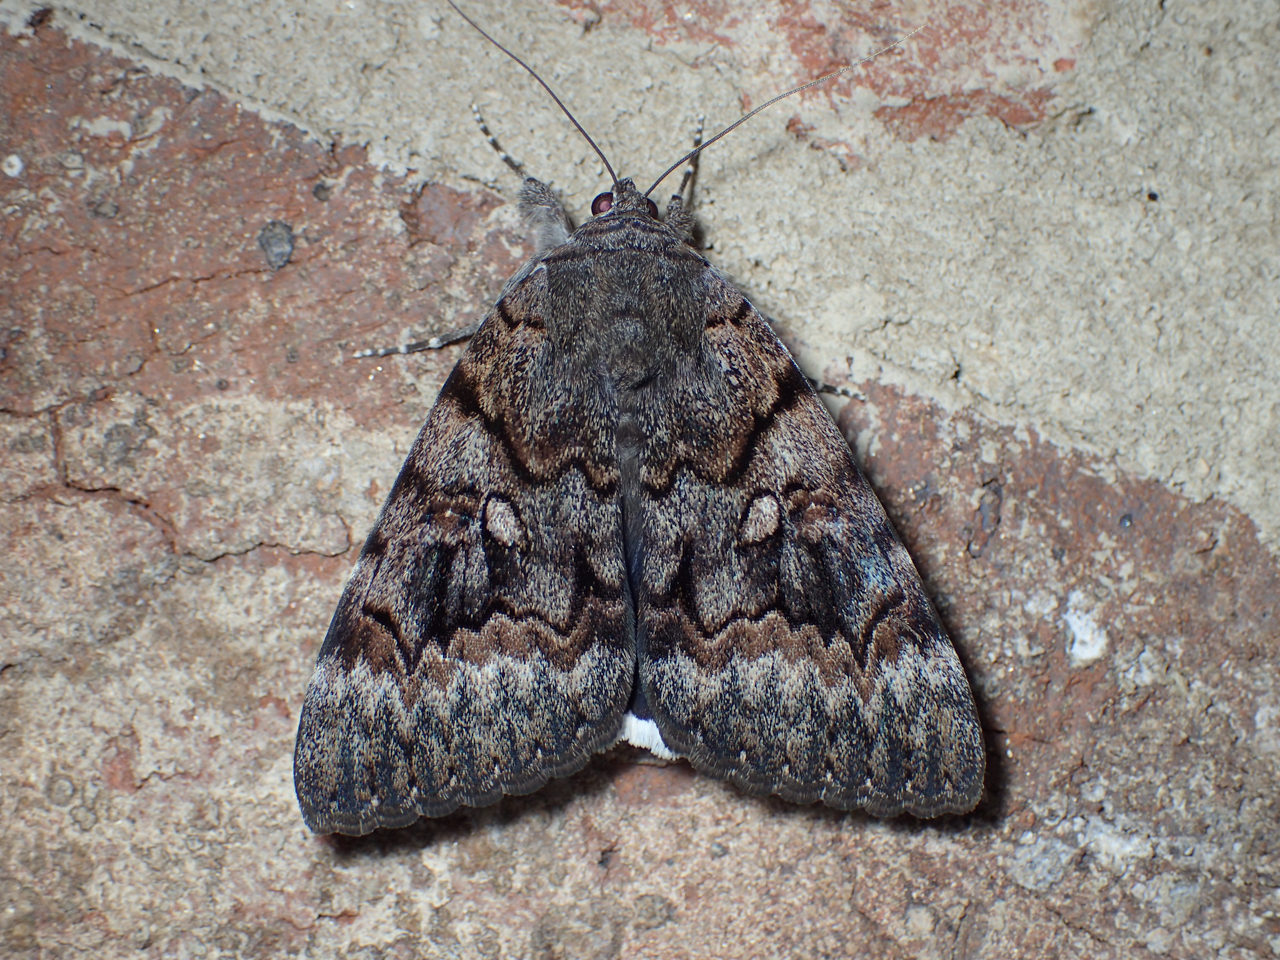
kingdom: Animalia
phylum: Arthropoda
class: Insecta
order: Lepidoptera
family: Erebidae
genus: Catocala
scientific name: Catocala epione
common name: Epione underwing
